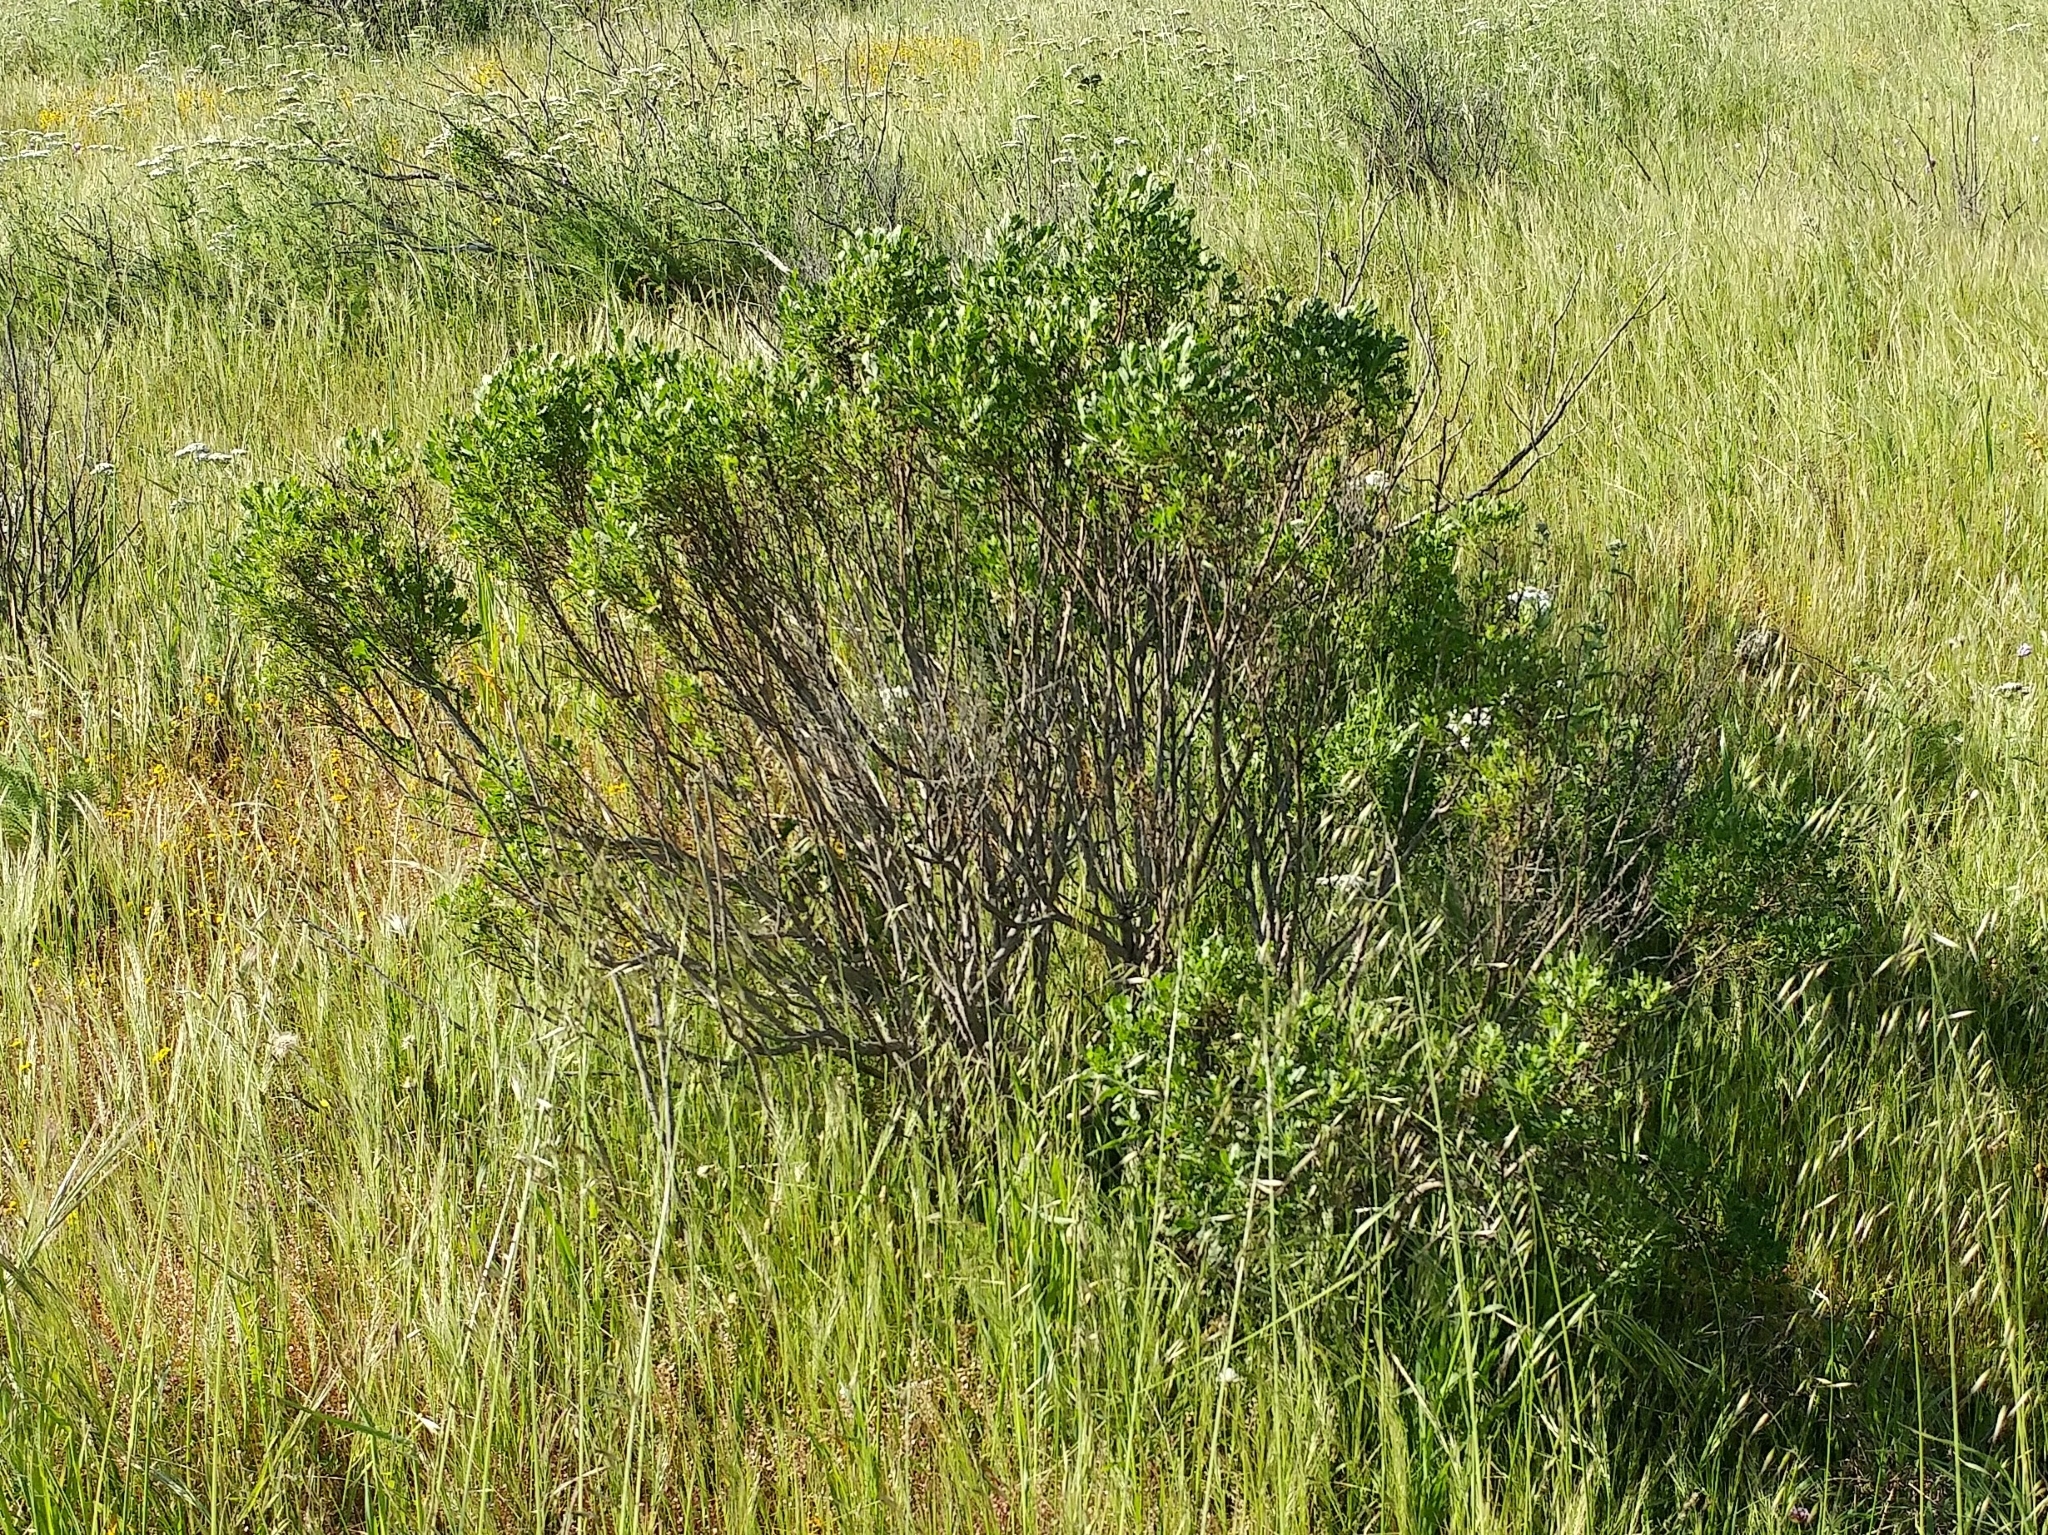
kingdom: Plantae
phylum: Tracheophyta
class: Magnoliopsida
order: Asterales
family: Asteraceae
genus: Baccharis
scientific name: Baccharis pilularis
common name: Coyotebrush
